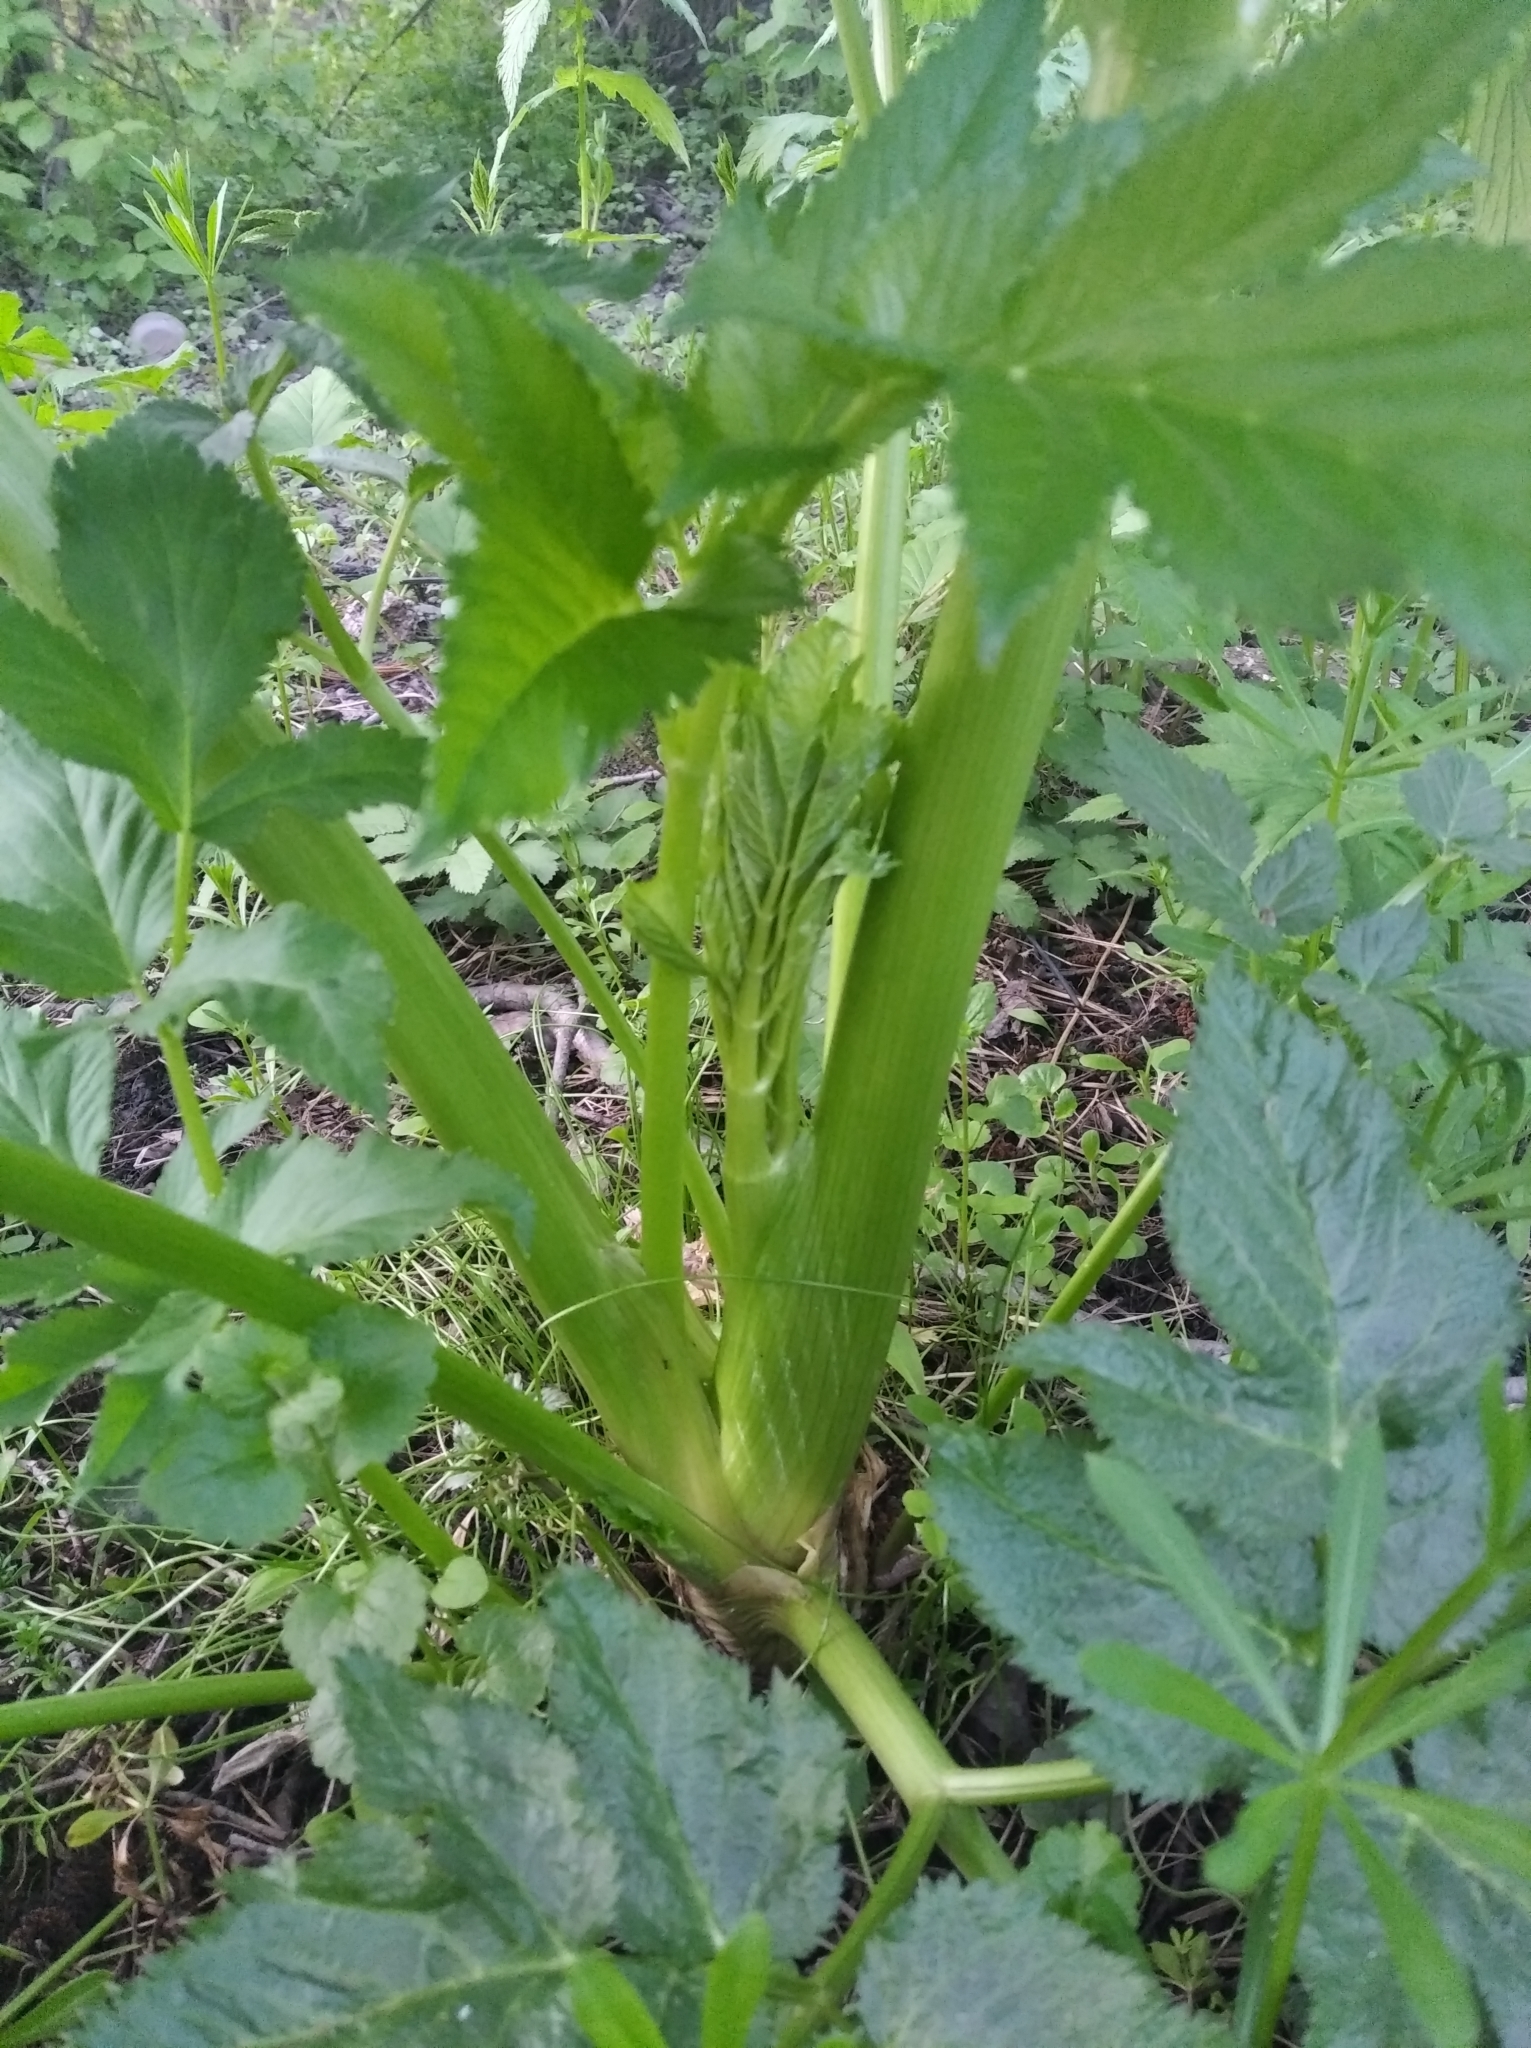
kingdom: Plantae
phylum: Tracheophyta
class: Magnoliopsida
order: Apiales
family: Apiaceae
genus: Angelica
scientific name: Angelica archangelica
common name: Garden angelica
